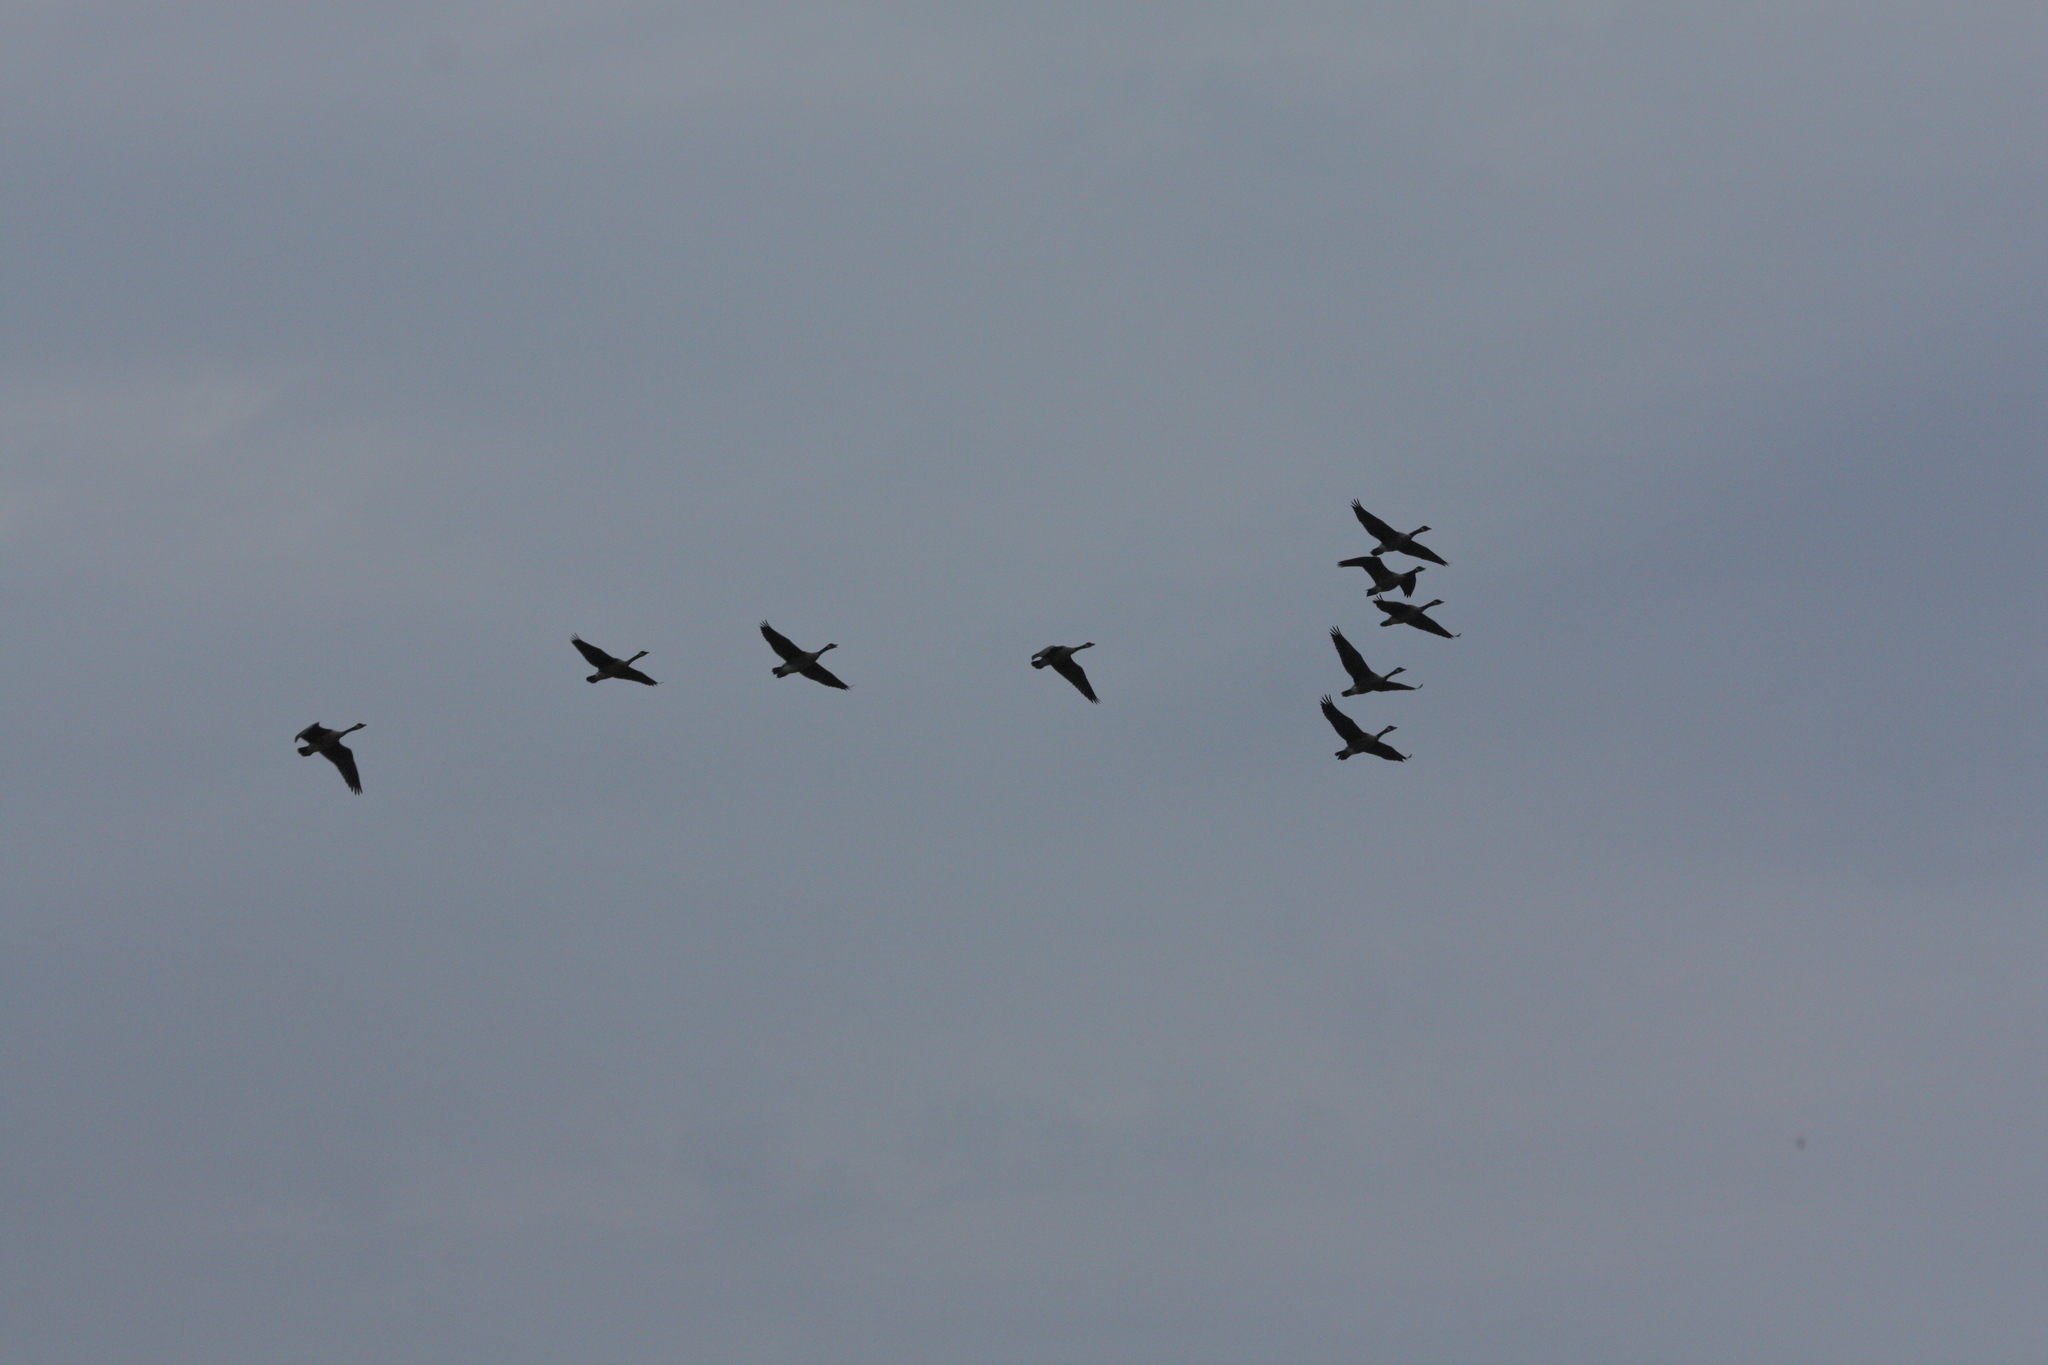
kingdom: Animalia
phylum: Chordata
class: Aves
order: Anseriformes
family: Anatidae
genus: Branta
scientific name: Branta canadensis
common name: Canada goose
